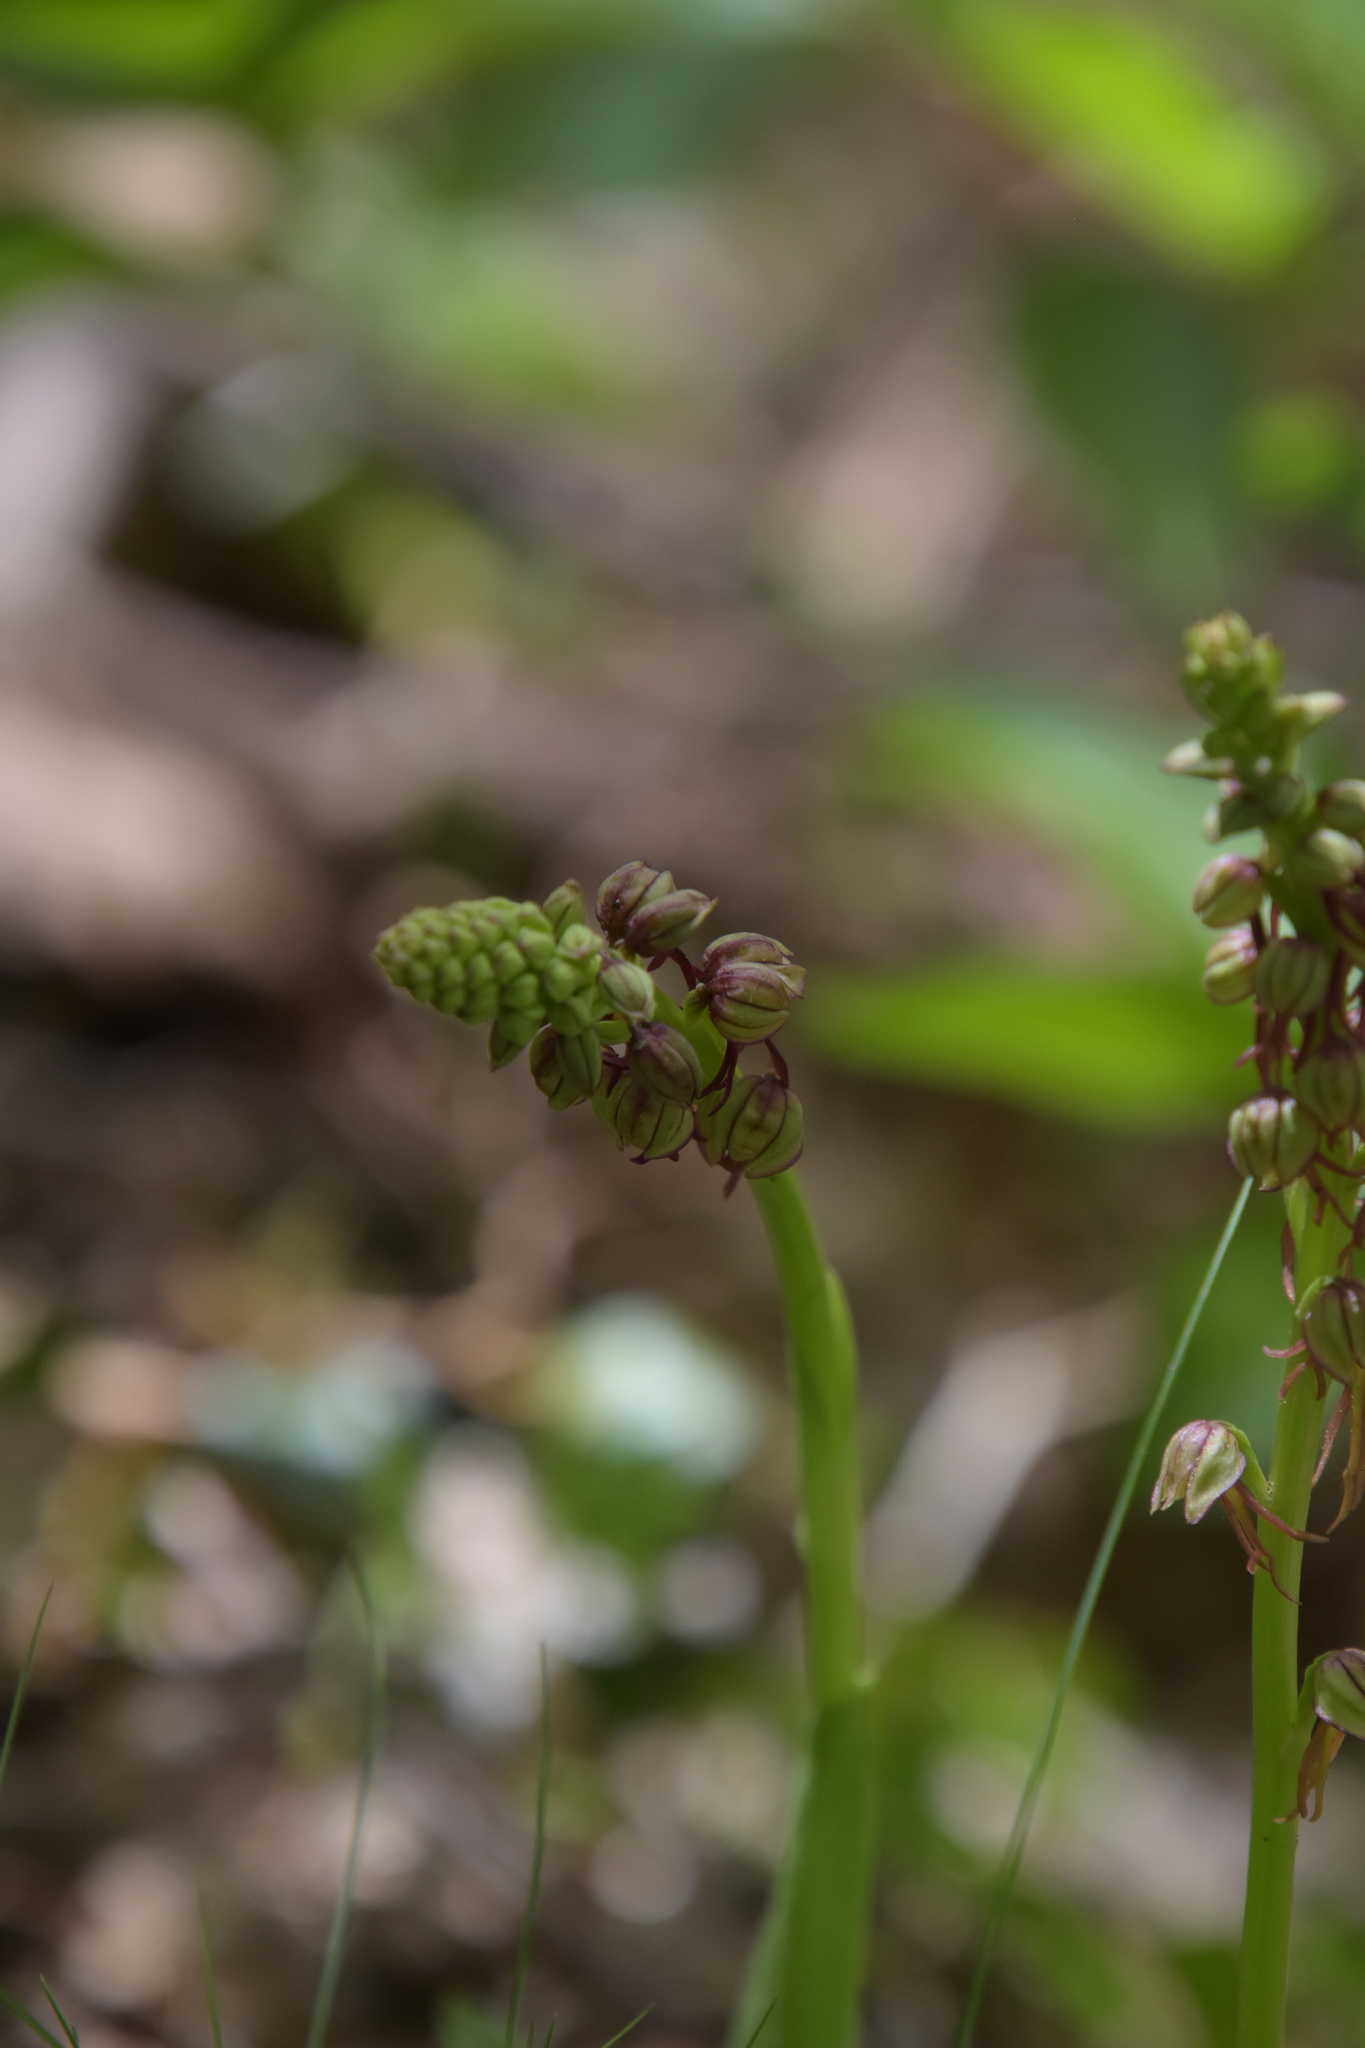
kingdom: Plantae
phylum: Tracheophyta
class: Liliopsida
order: Asparagales
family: Orchidaceae
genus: Orchis
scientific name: Orchis anthropophora
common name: Man orchid
